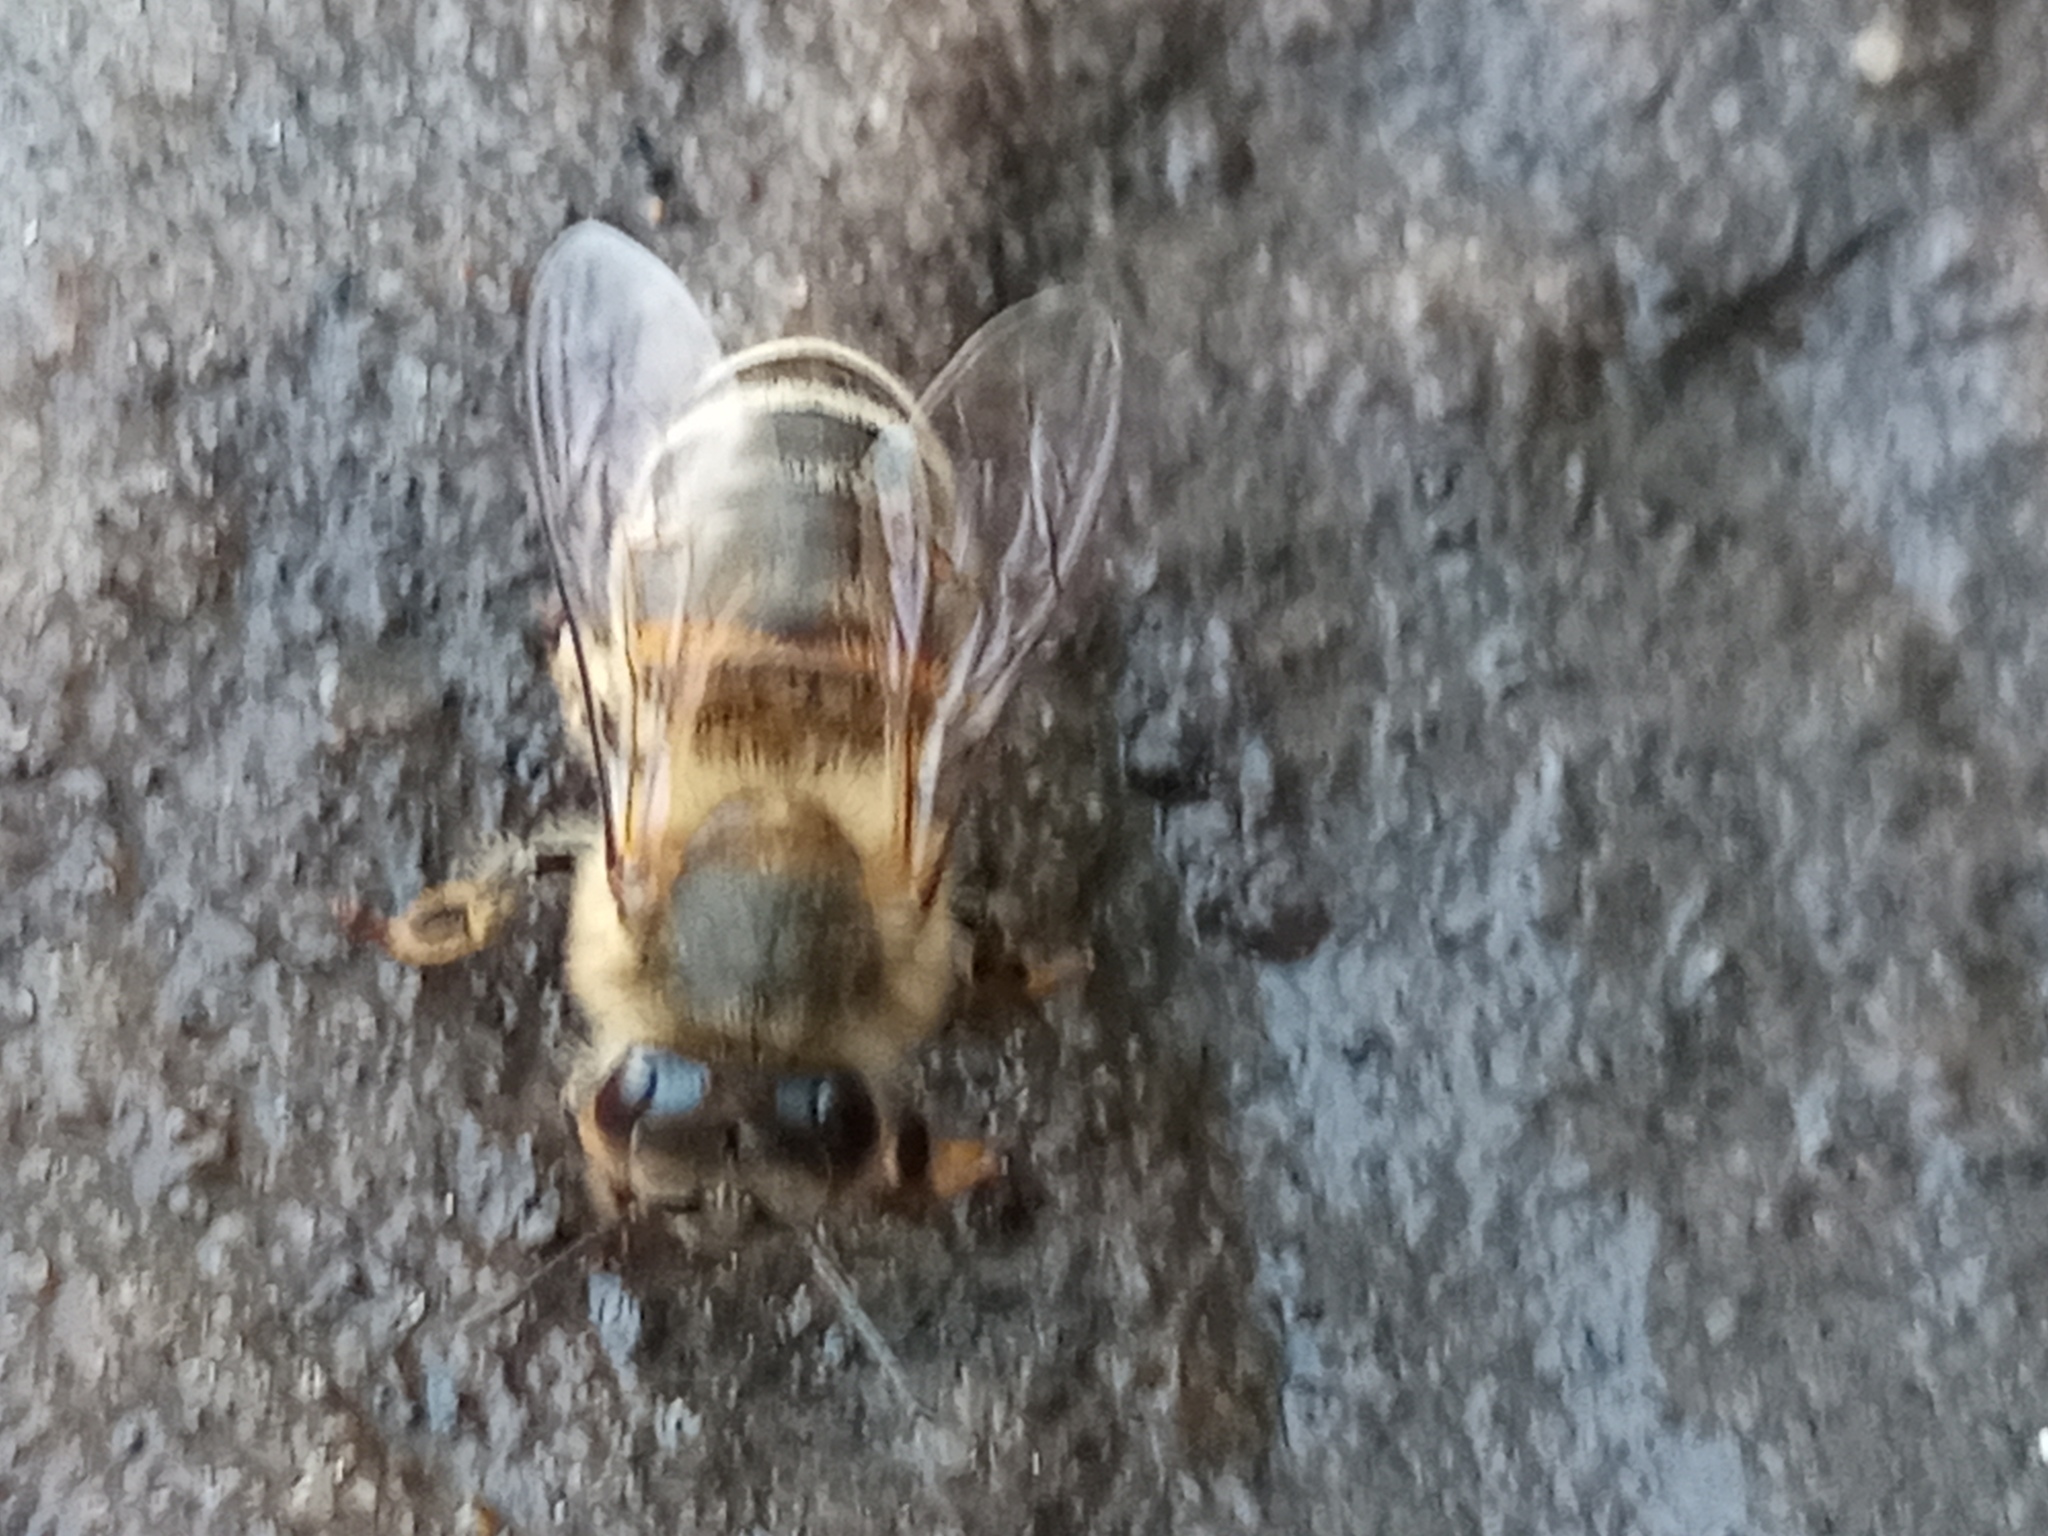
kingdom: Animalia
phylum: Arthropoda
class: Insecta
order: Hymenoptera
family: Apidae
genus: Apis
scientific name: Apis mellifera
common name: Honey bee
